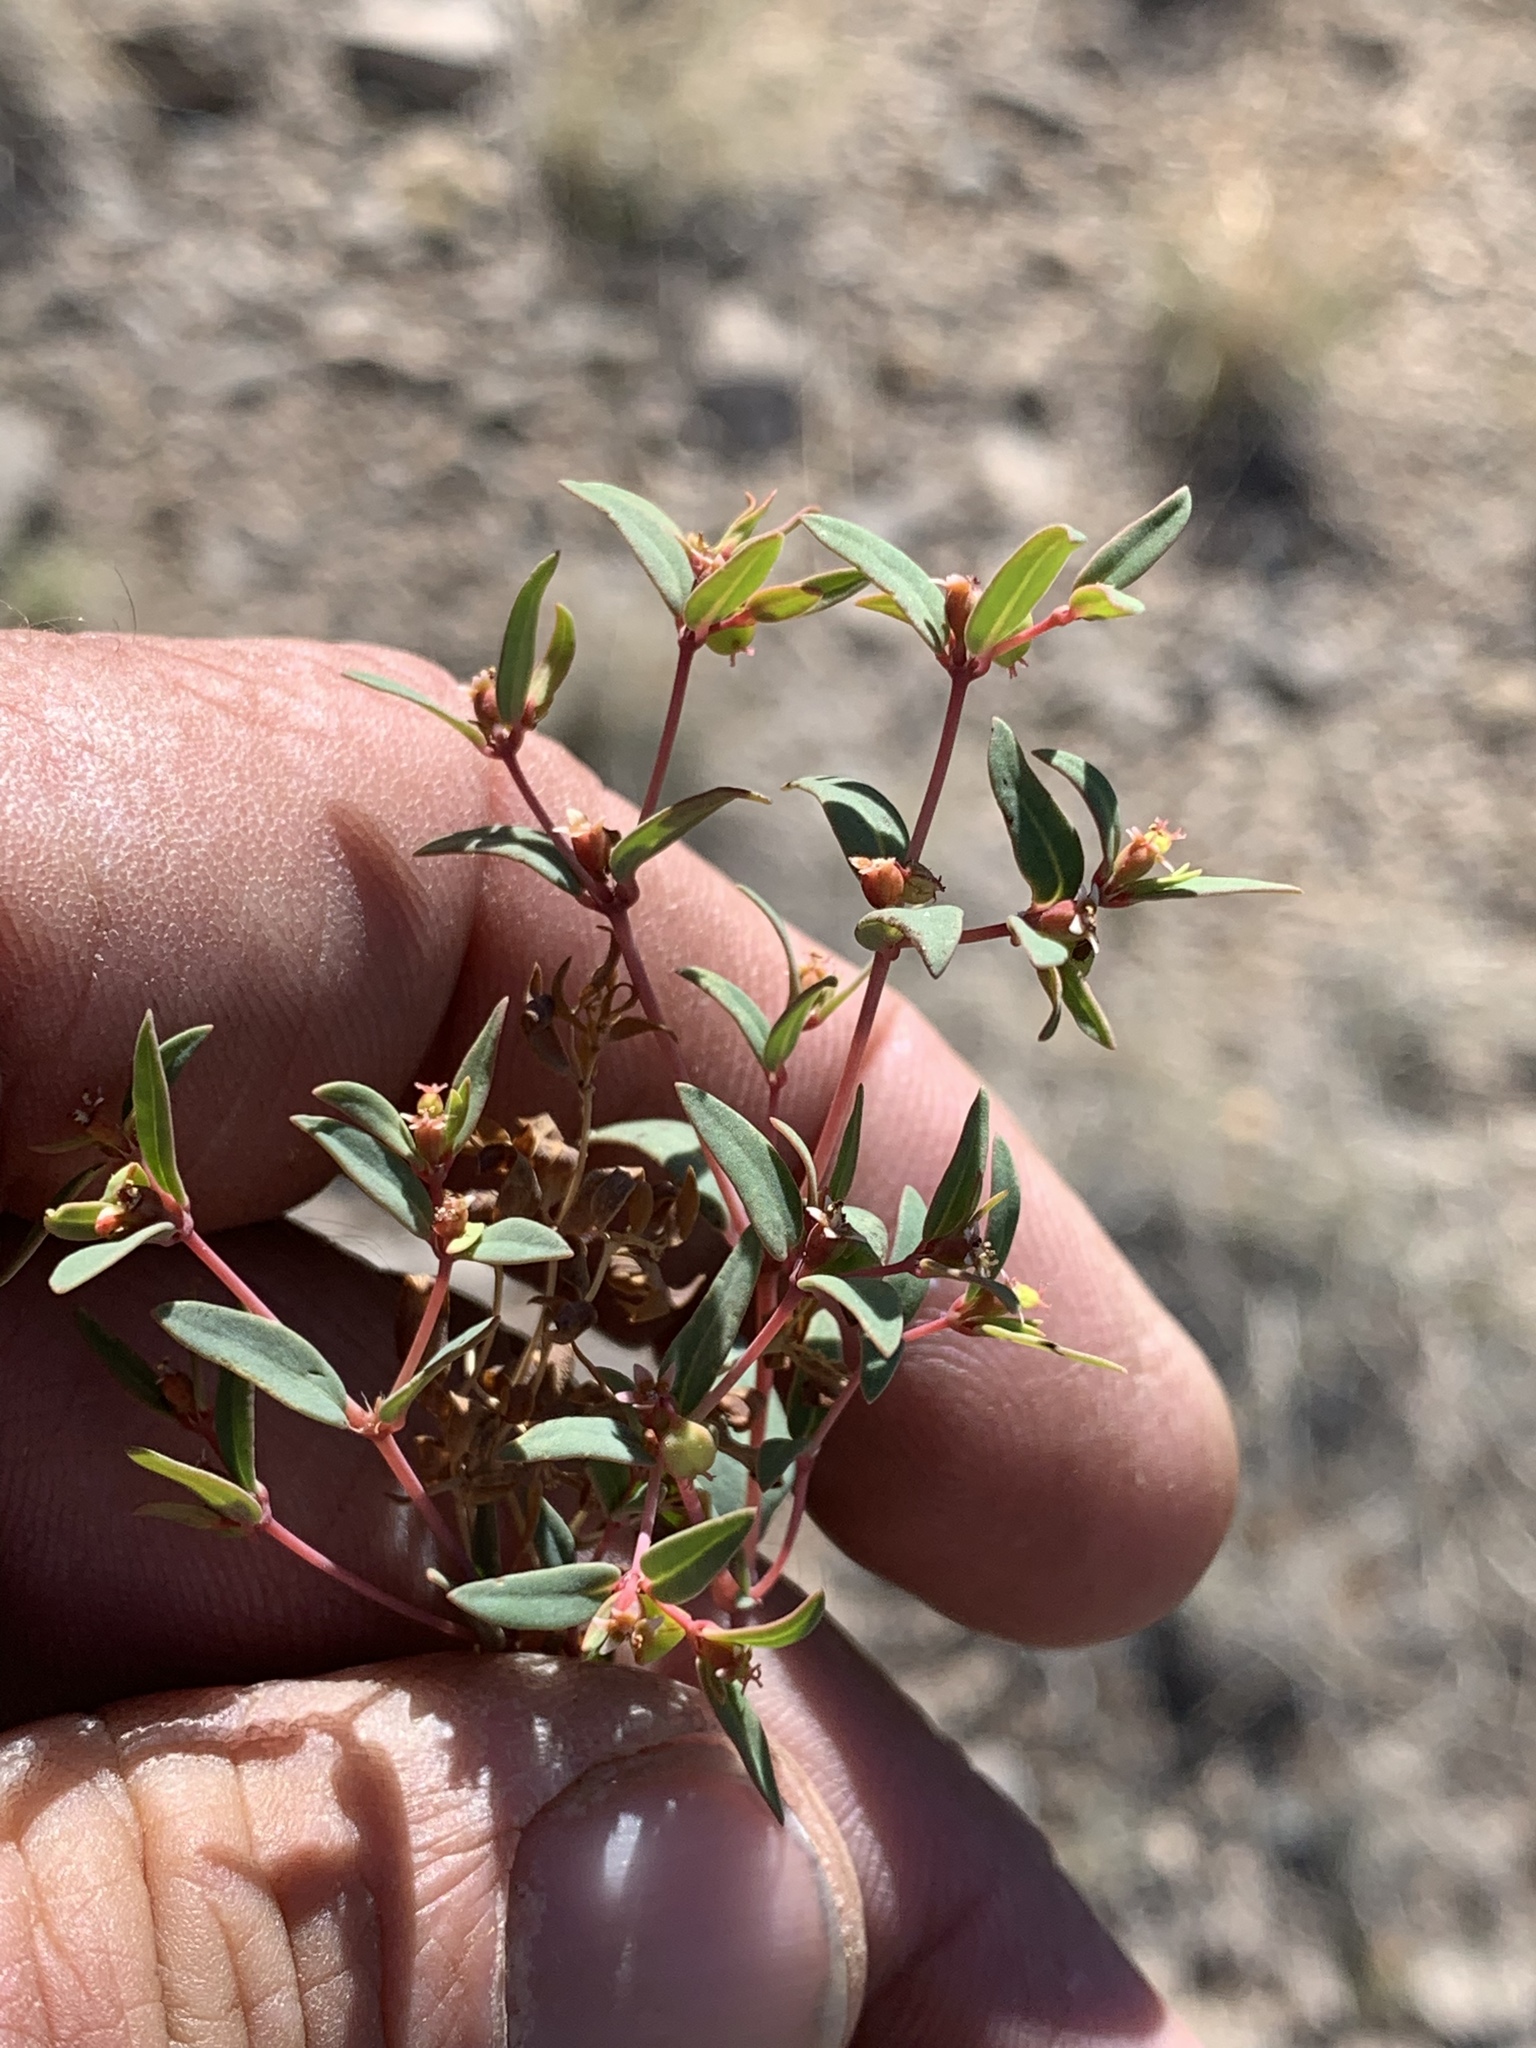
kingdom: Plantae
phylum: Tracheophyta
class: Magnoliopsida
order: Malpighiales
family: Euphorbiaceae
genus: Euphorbia
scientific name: Euphorbia chaetocalyx
